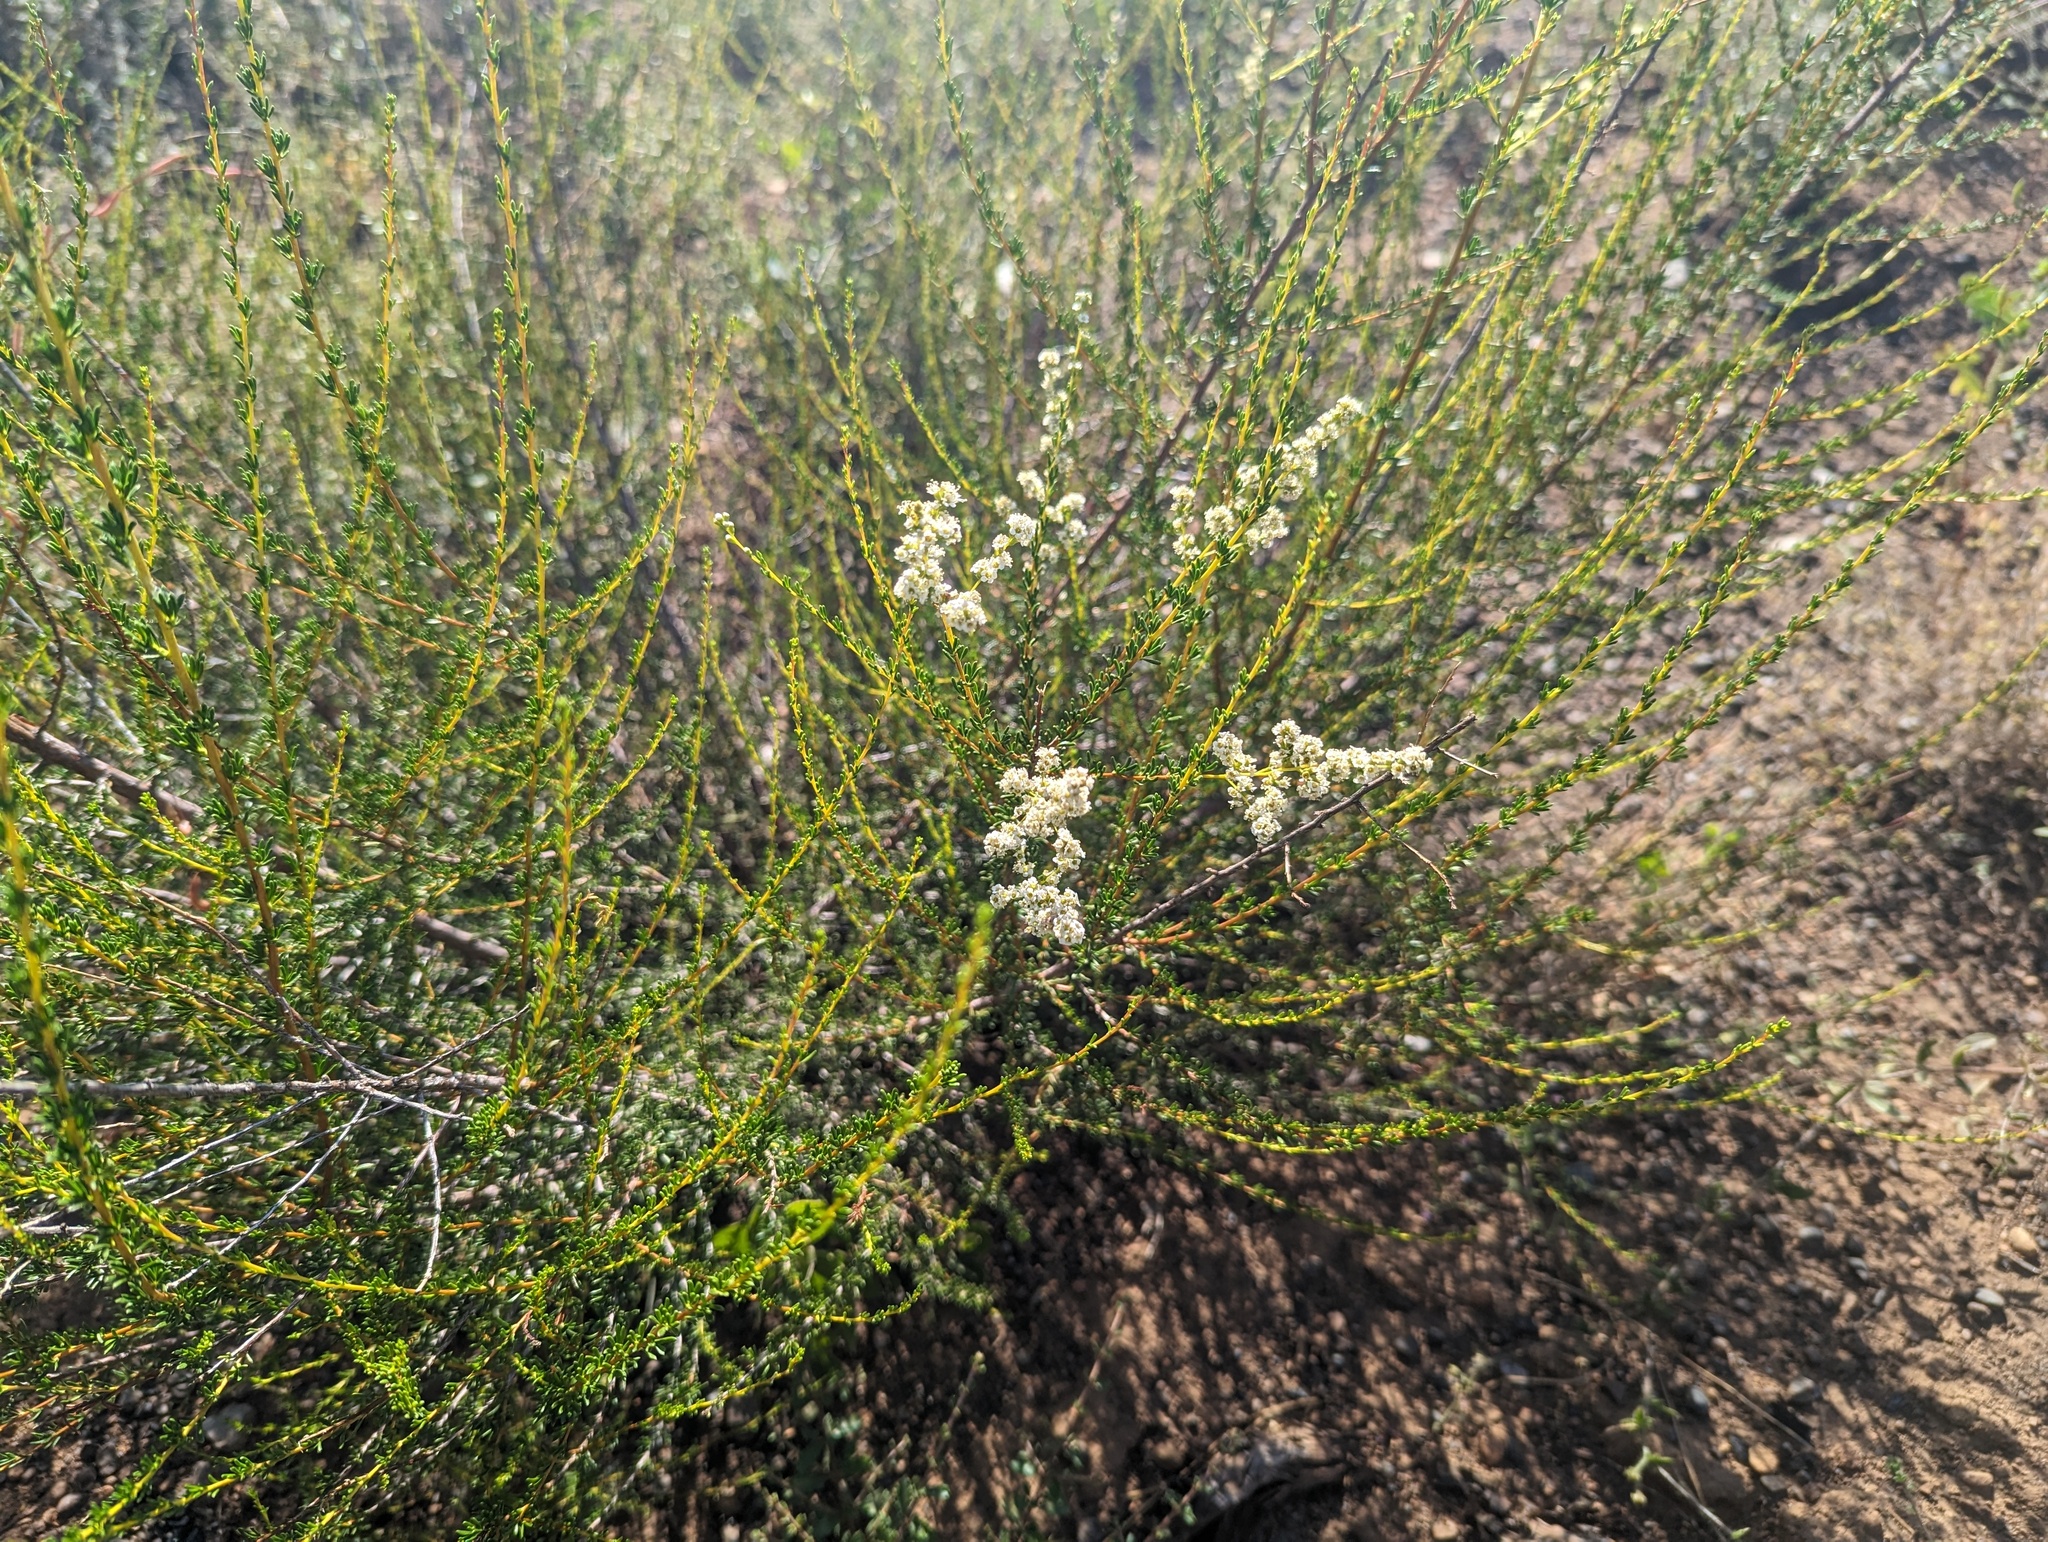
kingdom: Plantae
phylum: Tracheophyta
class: Magnoliopsida
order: Rosales
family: Rosaceae
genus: Adenostoma
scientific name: Adenostoma fasciculatum
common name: Chamise
